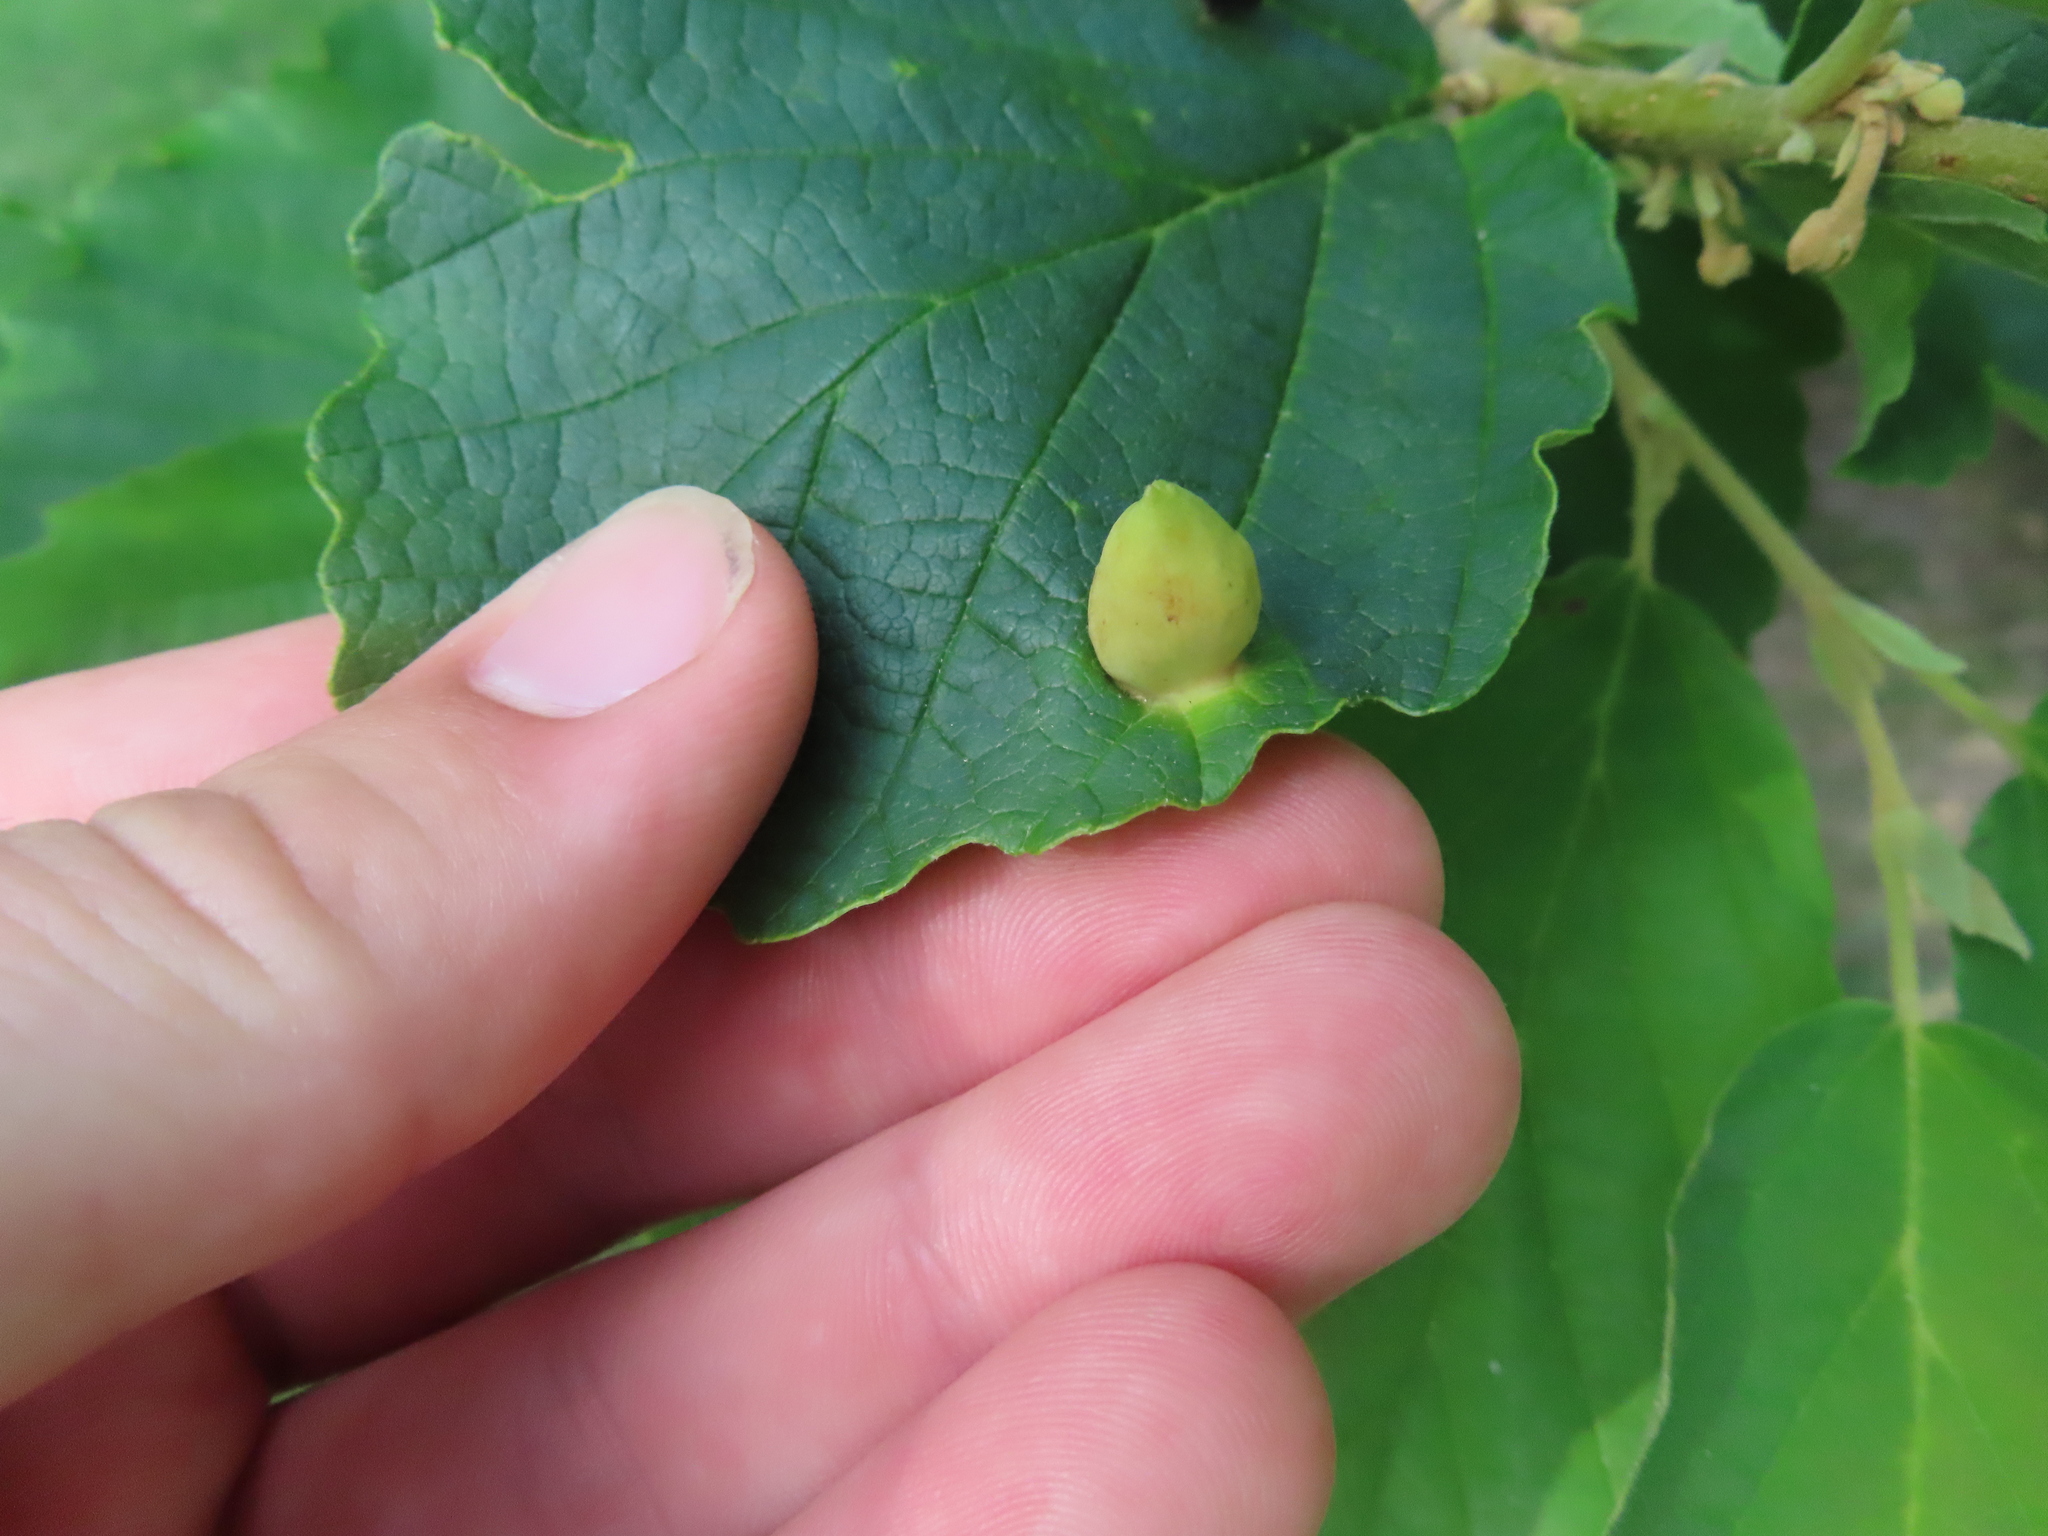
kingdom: Animalia
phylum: Arthropoda
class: Insecta
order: Hemiptera
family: Aphididae
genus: Hormaphis
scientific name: Hormaphis hamamelidis
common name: Witch-hazel cone gall aphid
